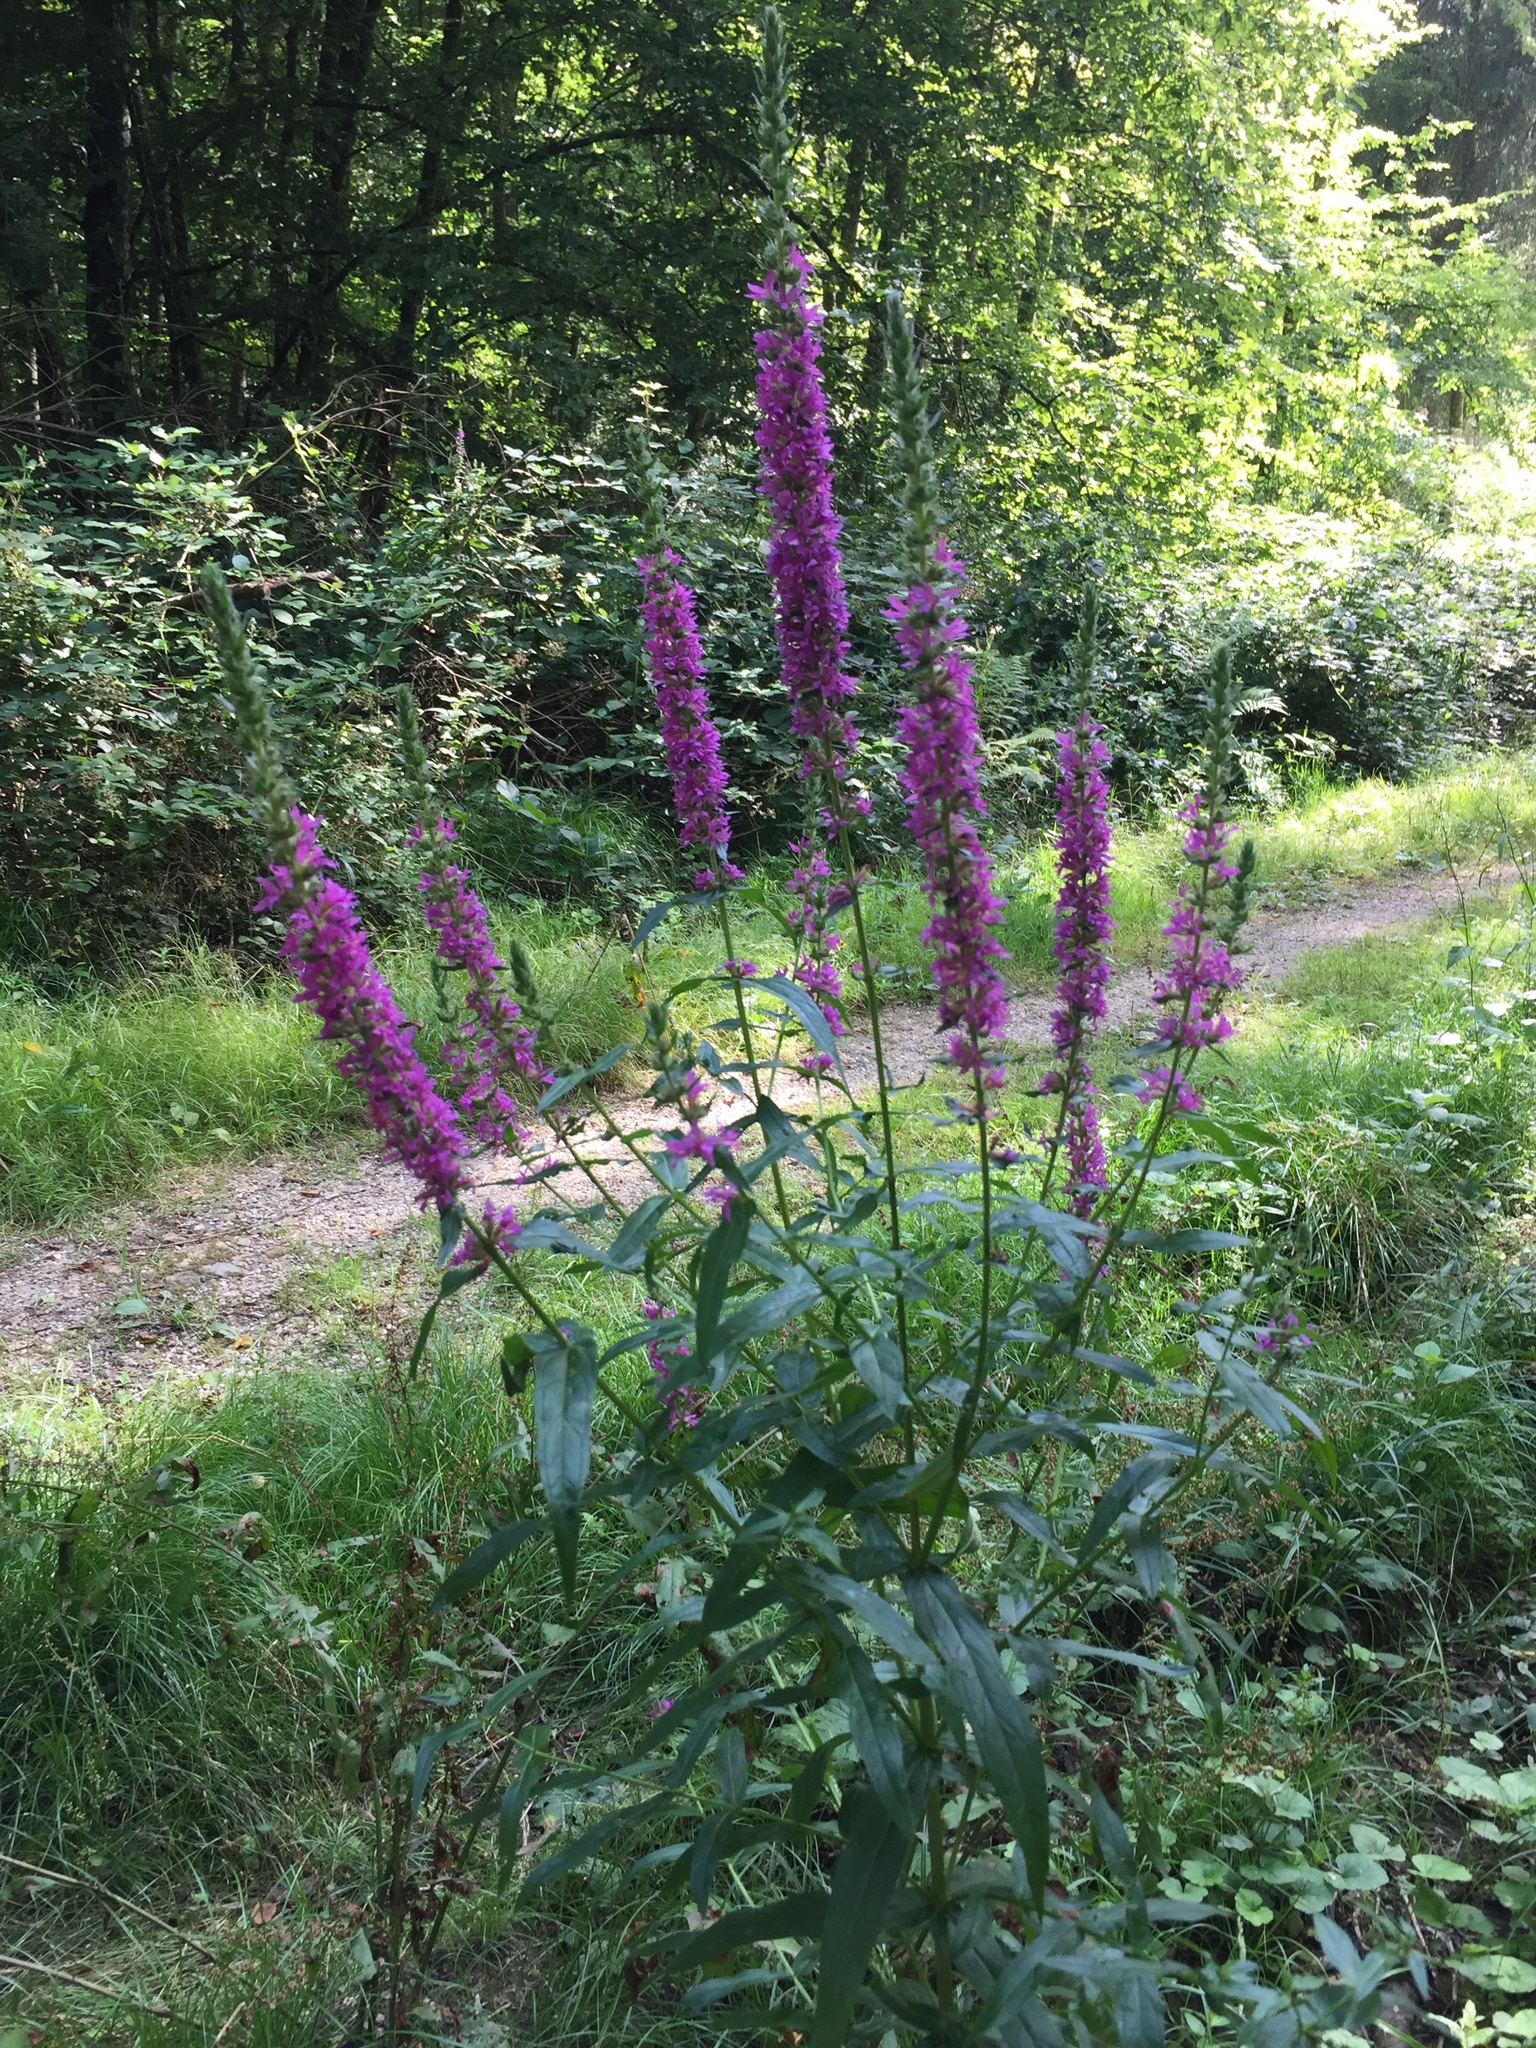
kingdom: Plantae
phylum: Tracheophyta
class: Magnoliopsida
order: Myrtales
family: Lythraceae
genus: Lythrum
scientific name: Lythrum salicaria
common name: Purple loosestrife
